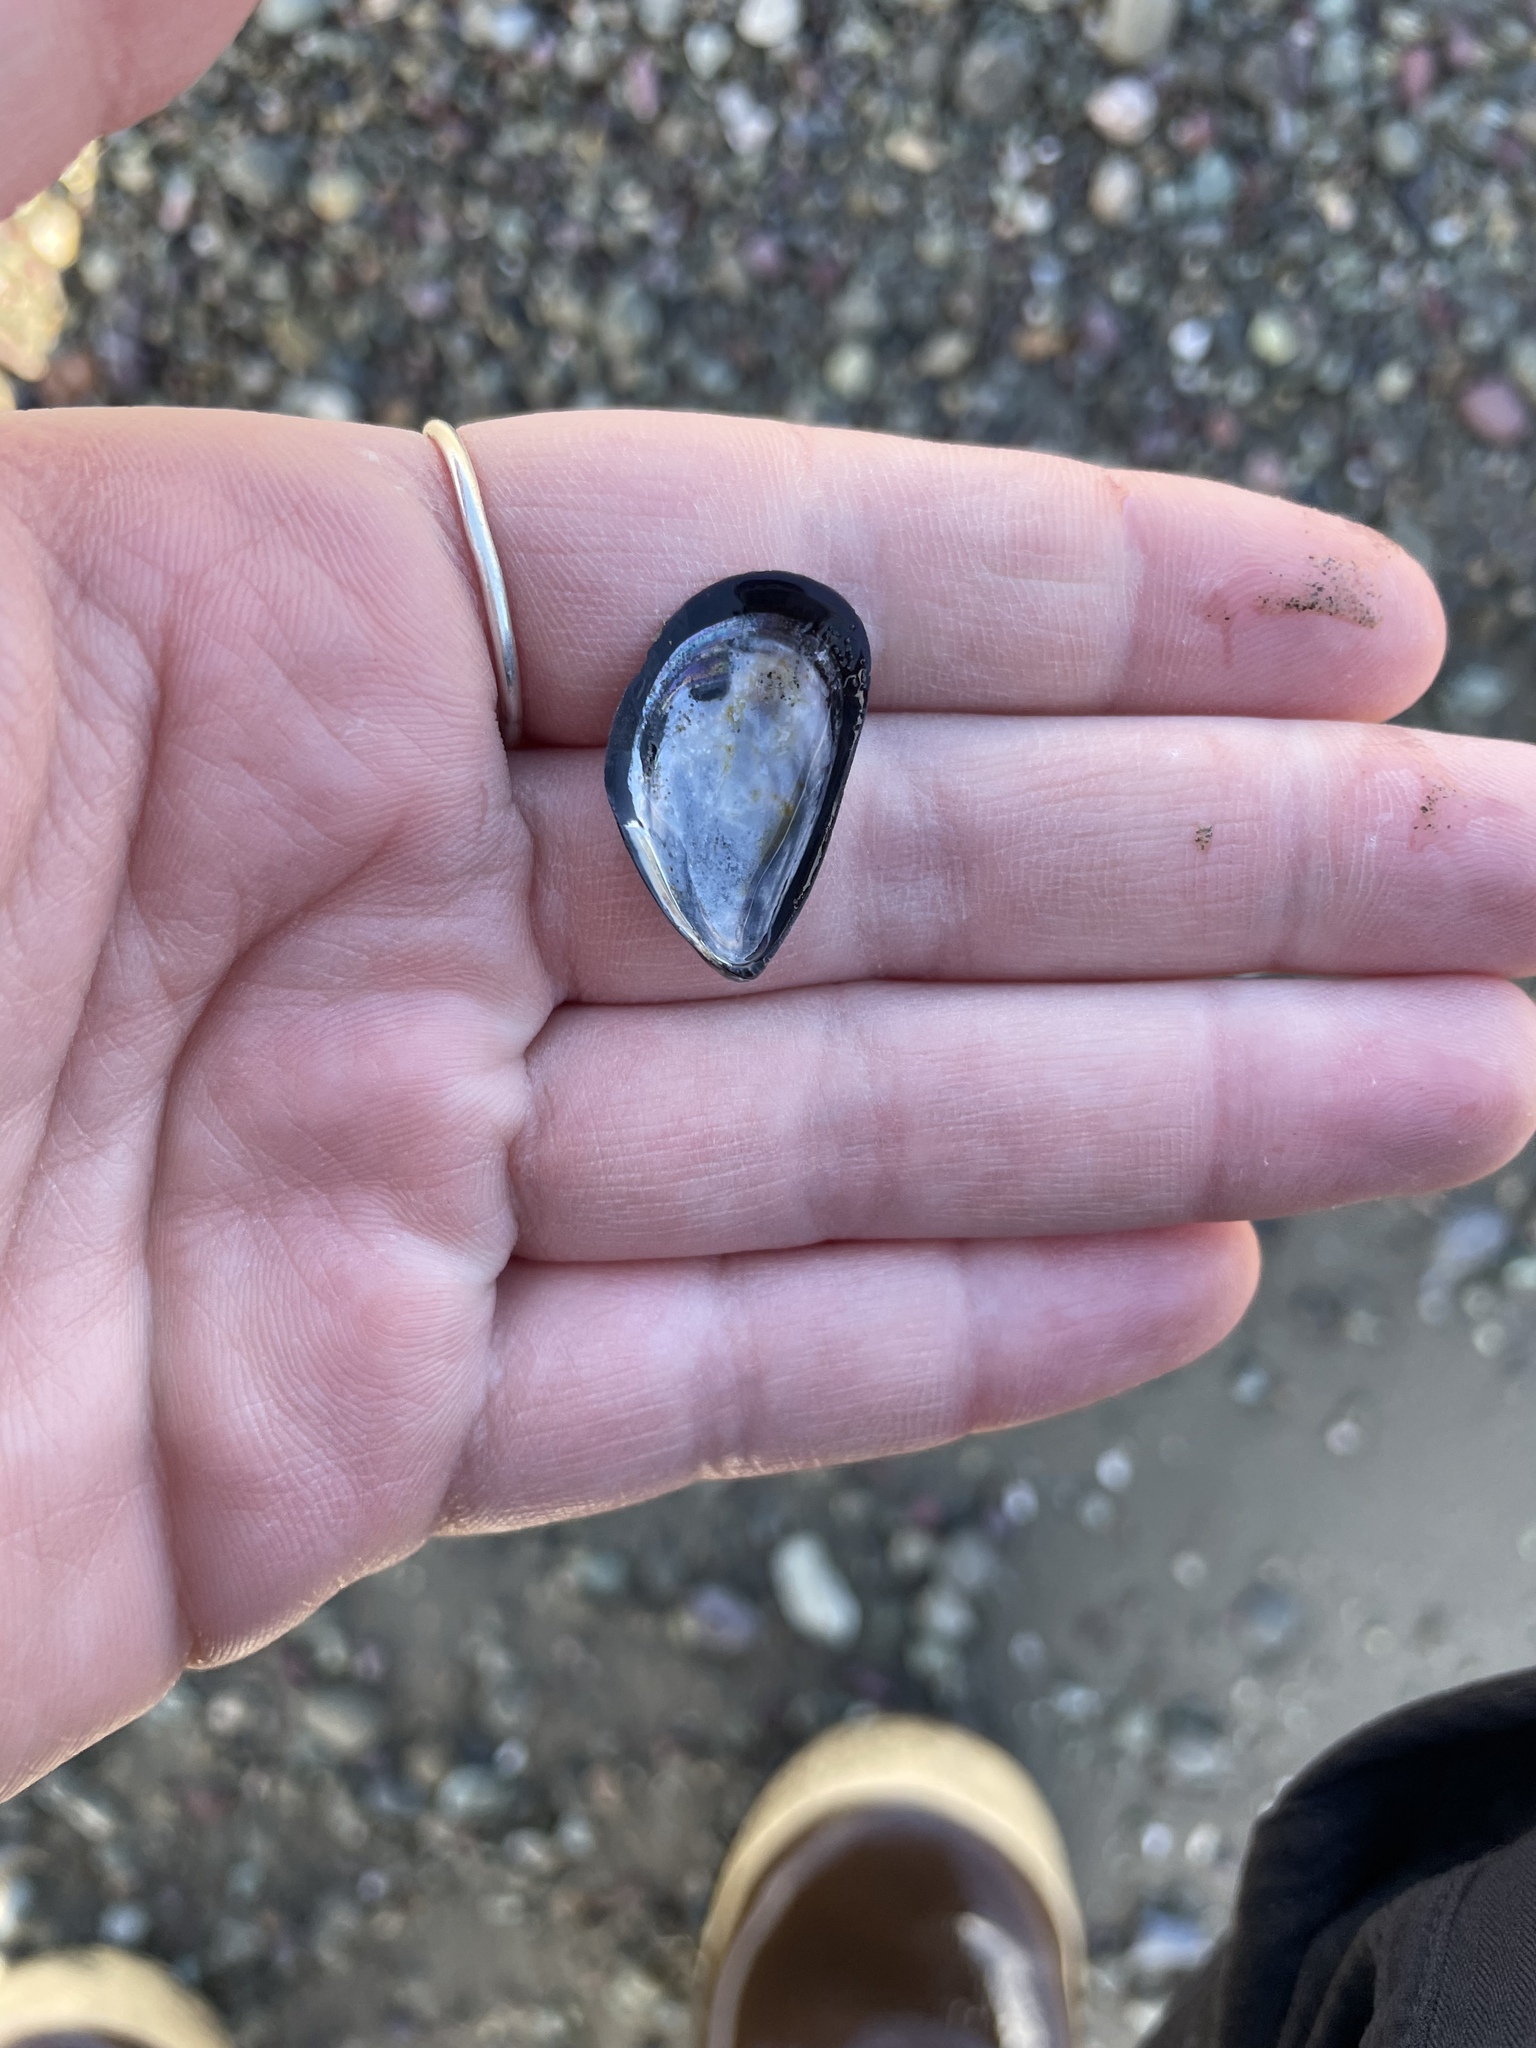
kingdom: Animalia
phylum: Mollusca
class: Bivalvia
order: Mytilida
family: Mytilidae
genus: Mytilus
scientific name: Mytilus
